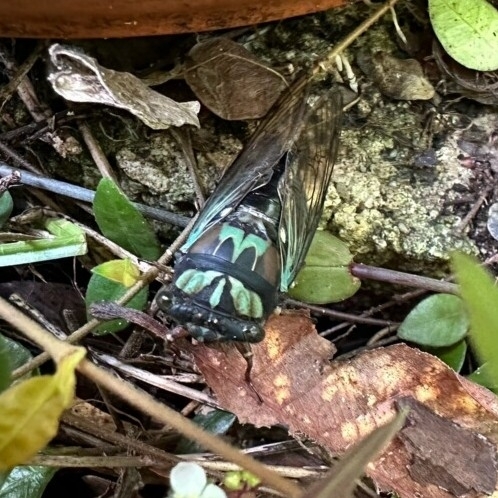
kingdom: Animalia
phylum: Arthropoda
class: Insecta
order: Hemiptera
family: Cicadidae
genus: Neotibicen
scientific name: Neotibicen lyricen
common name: Lyric cicada
